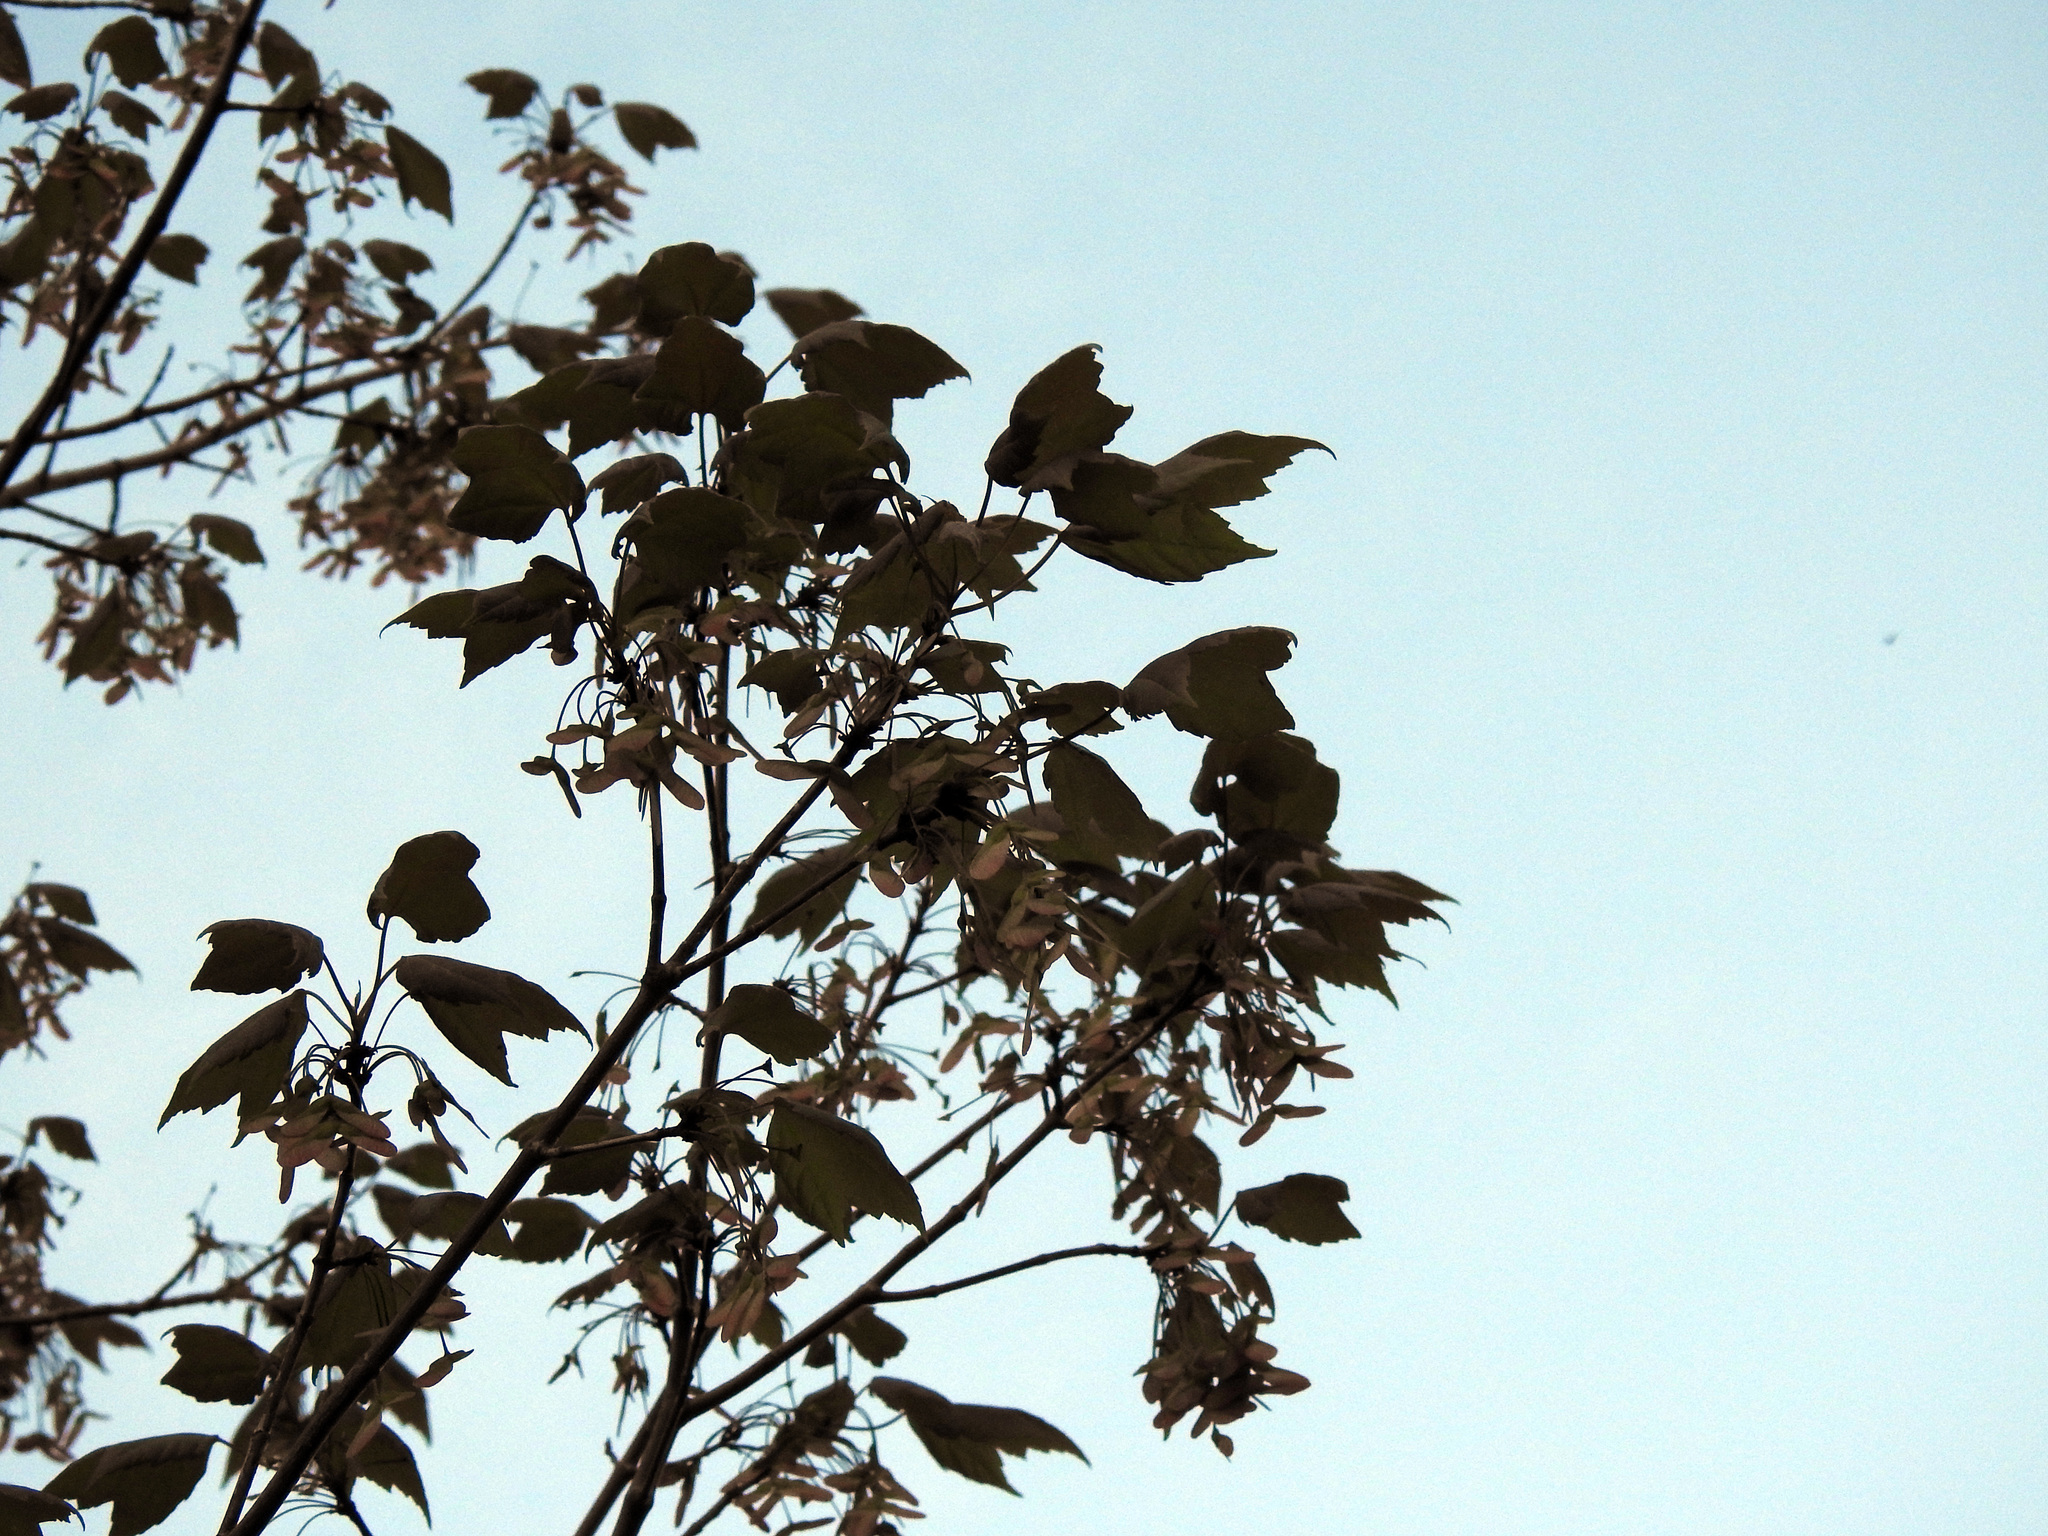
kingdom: Plantae
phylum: Tracheophyta
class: Magnoliopsida
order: Sapindales
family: Sapindaceae
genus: Acer
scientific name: Acer rubrum
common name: Red maple
